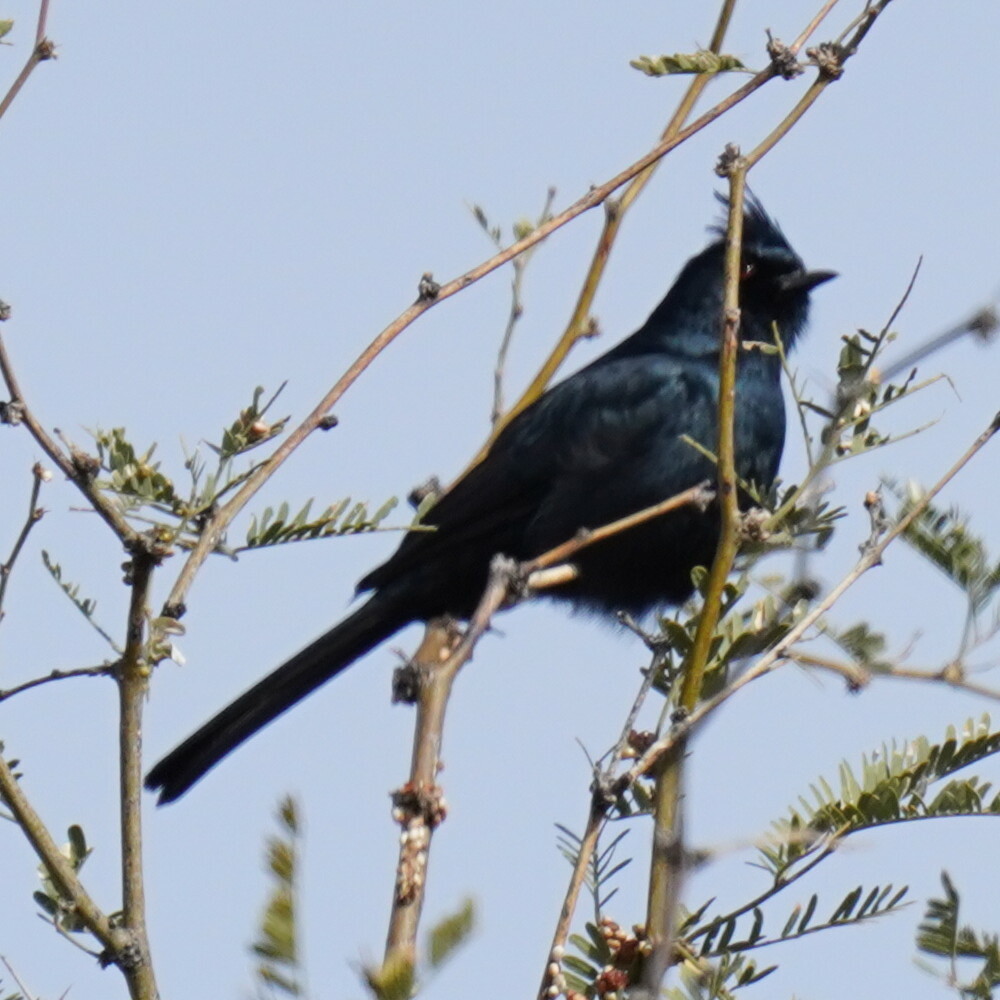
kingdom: Animalia
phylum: Chordata
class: Aves
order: Passeriformes
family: Ptilogonatidae
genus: Phainopepla
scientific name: Phainopepla nitens
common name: Phainopepla
